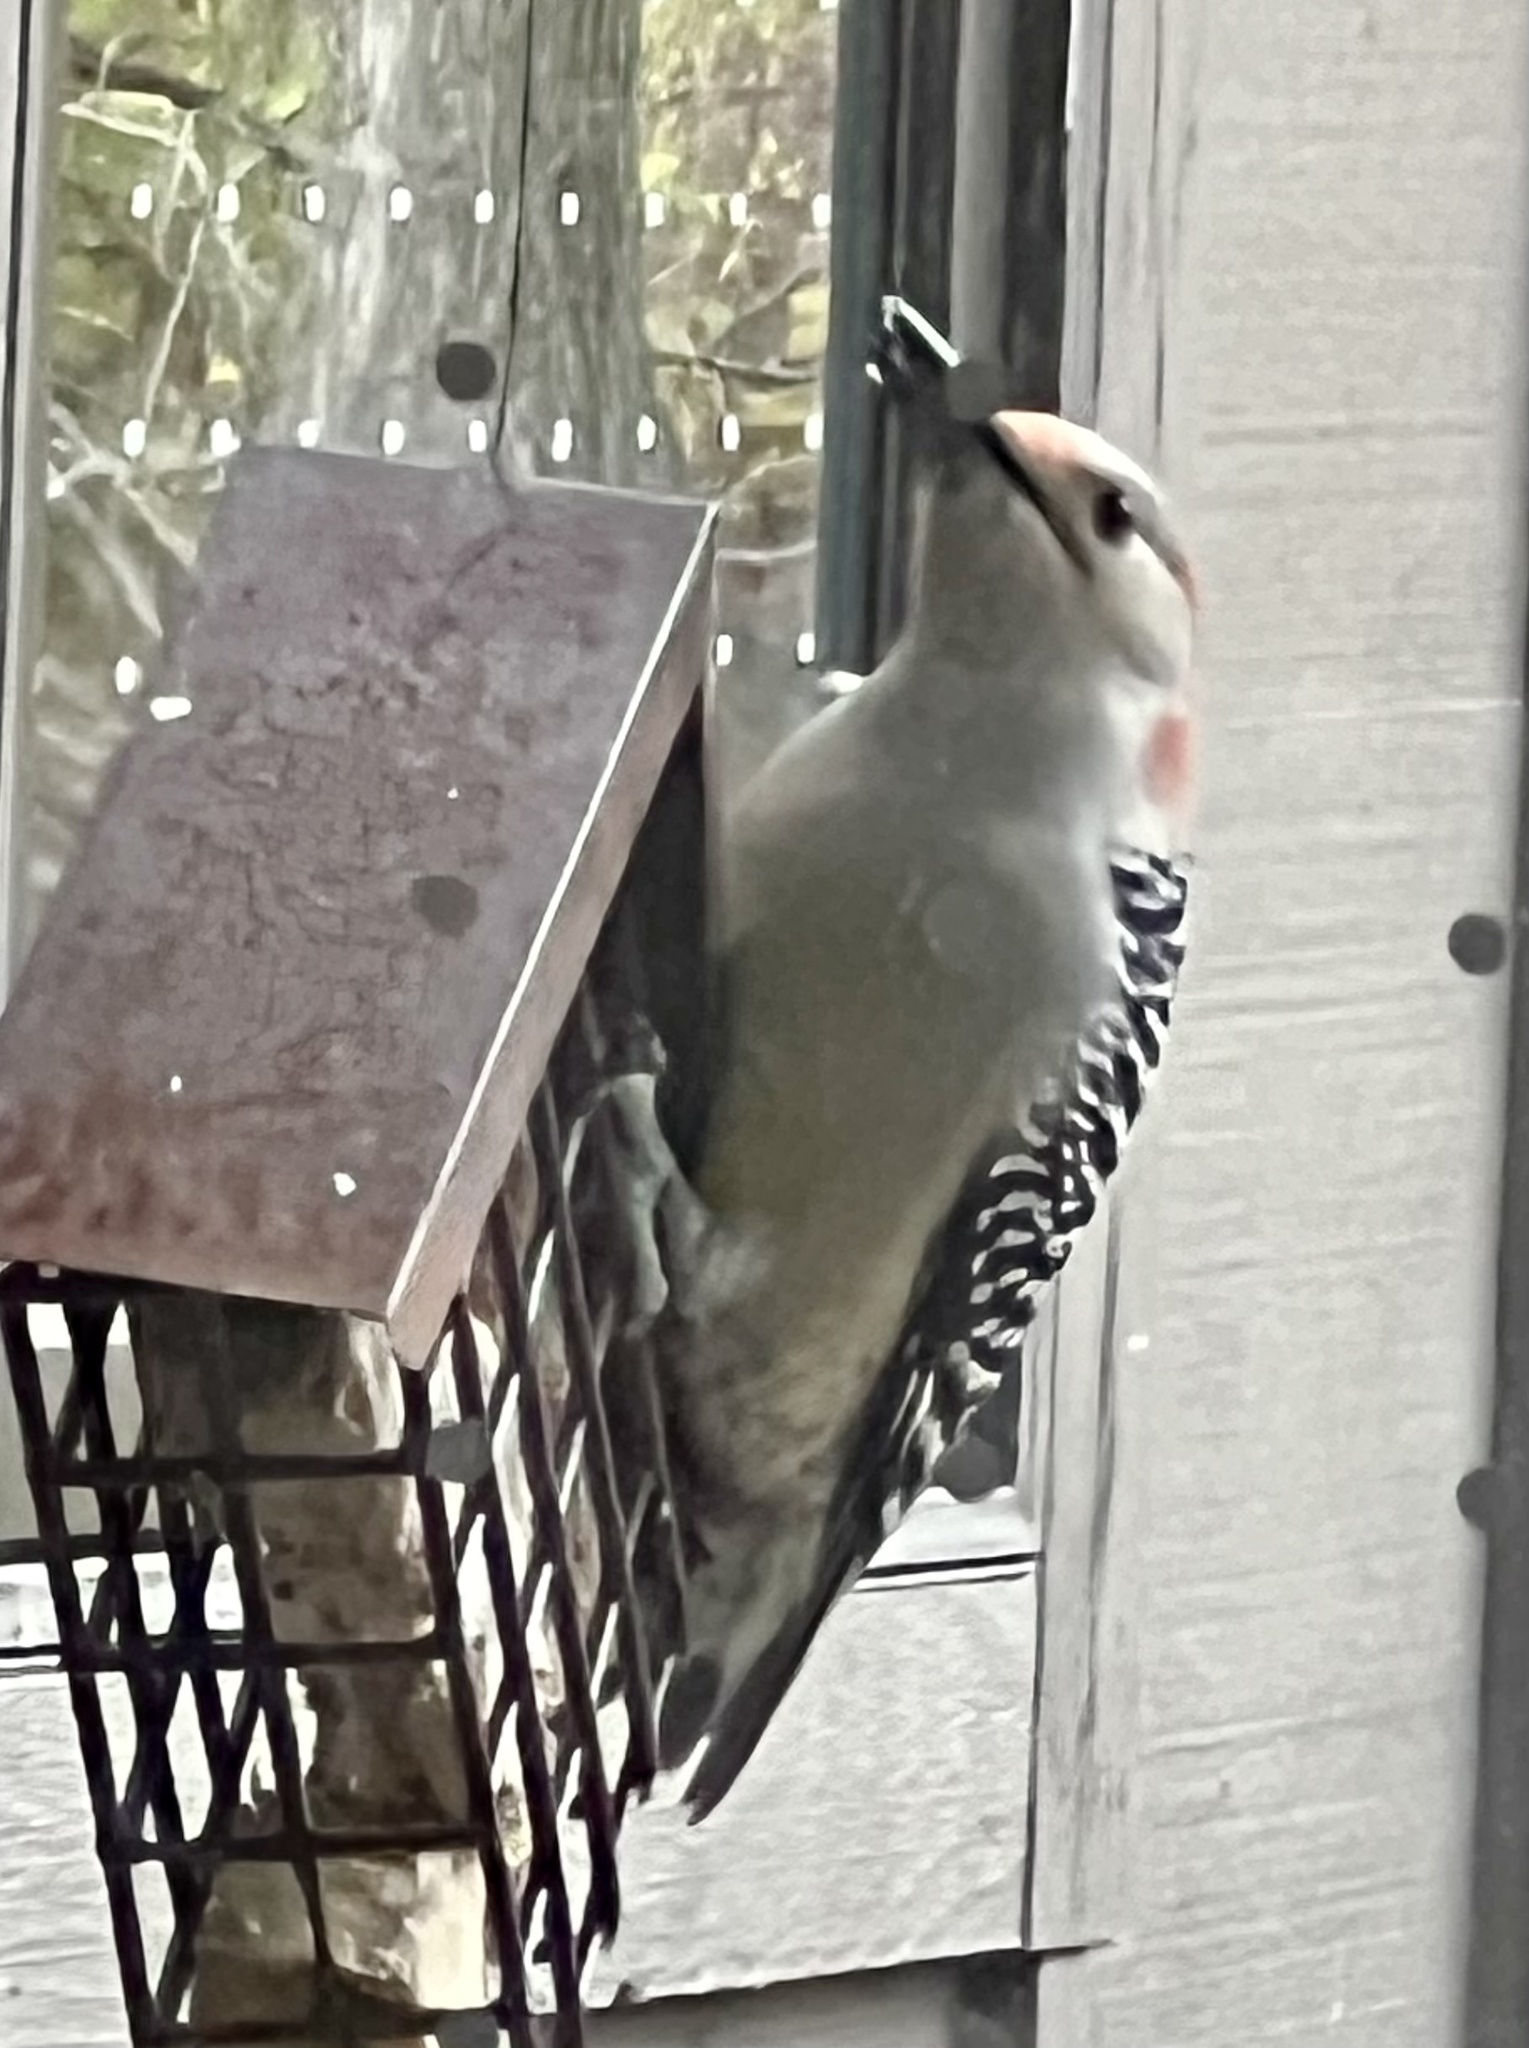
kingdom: Animalia
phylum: Chordata
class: Aves
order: Piciformes
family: Picidae
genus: Melanerpes
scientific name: Melanerpes carolinus
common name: Red-bellied woodpecker
